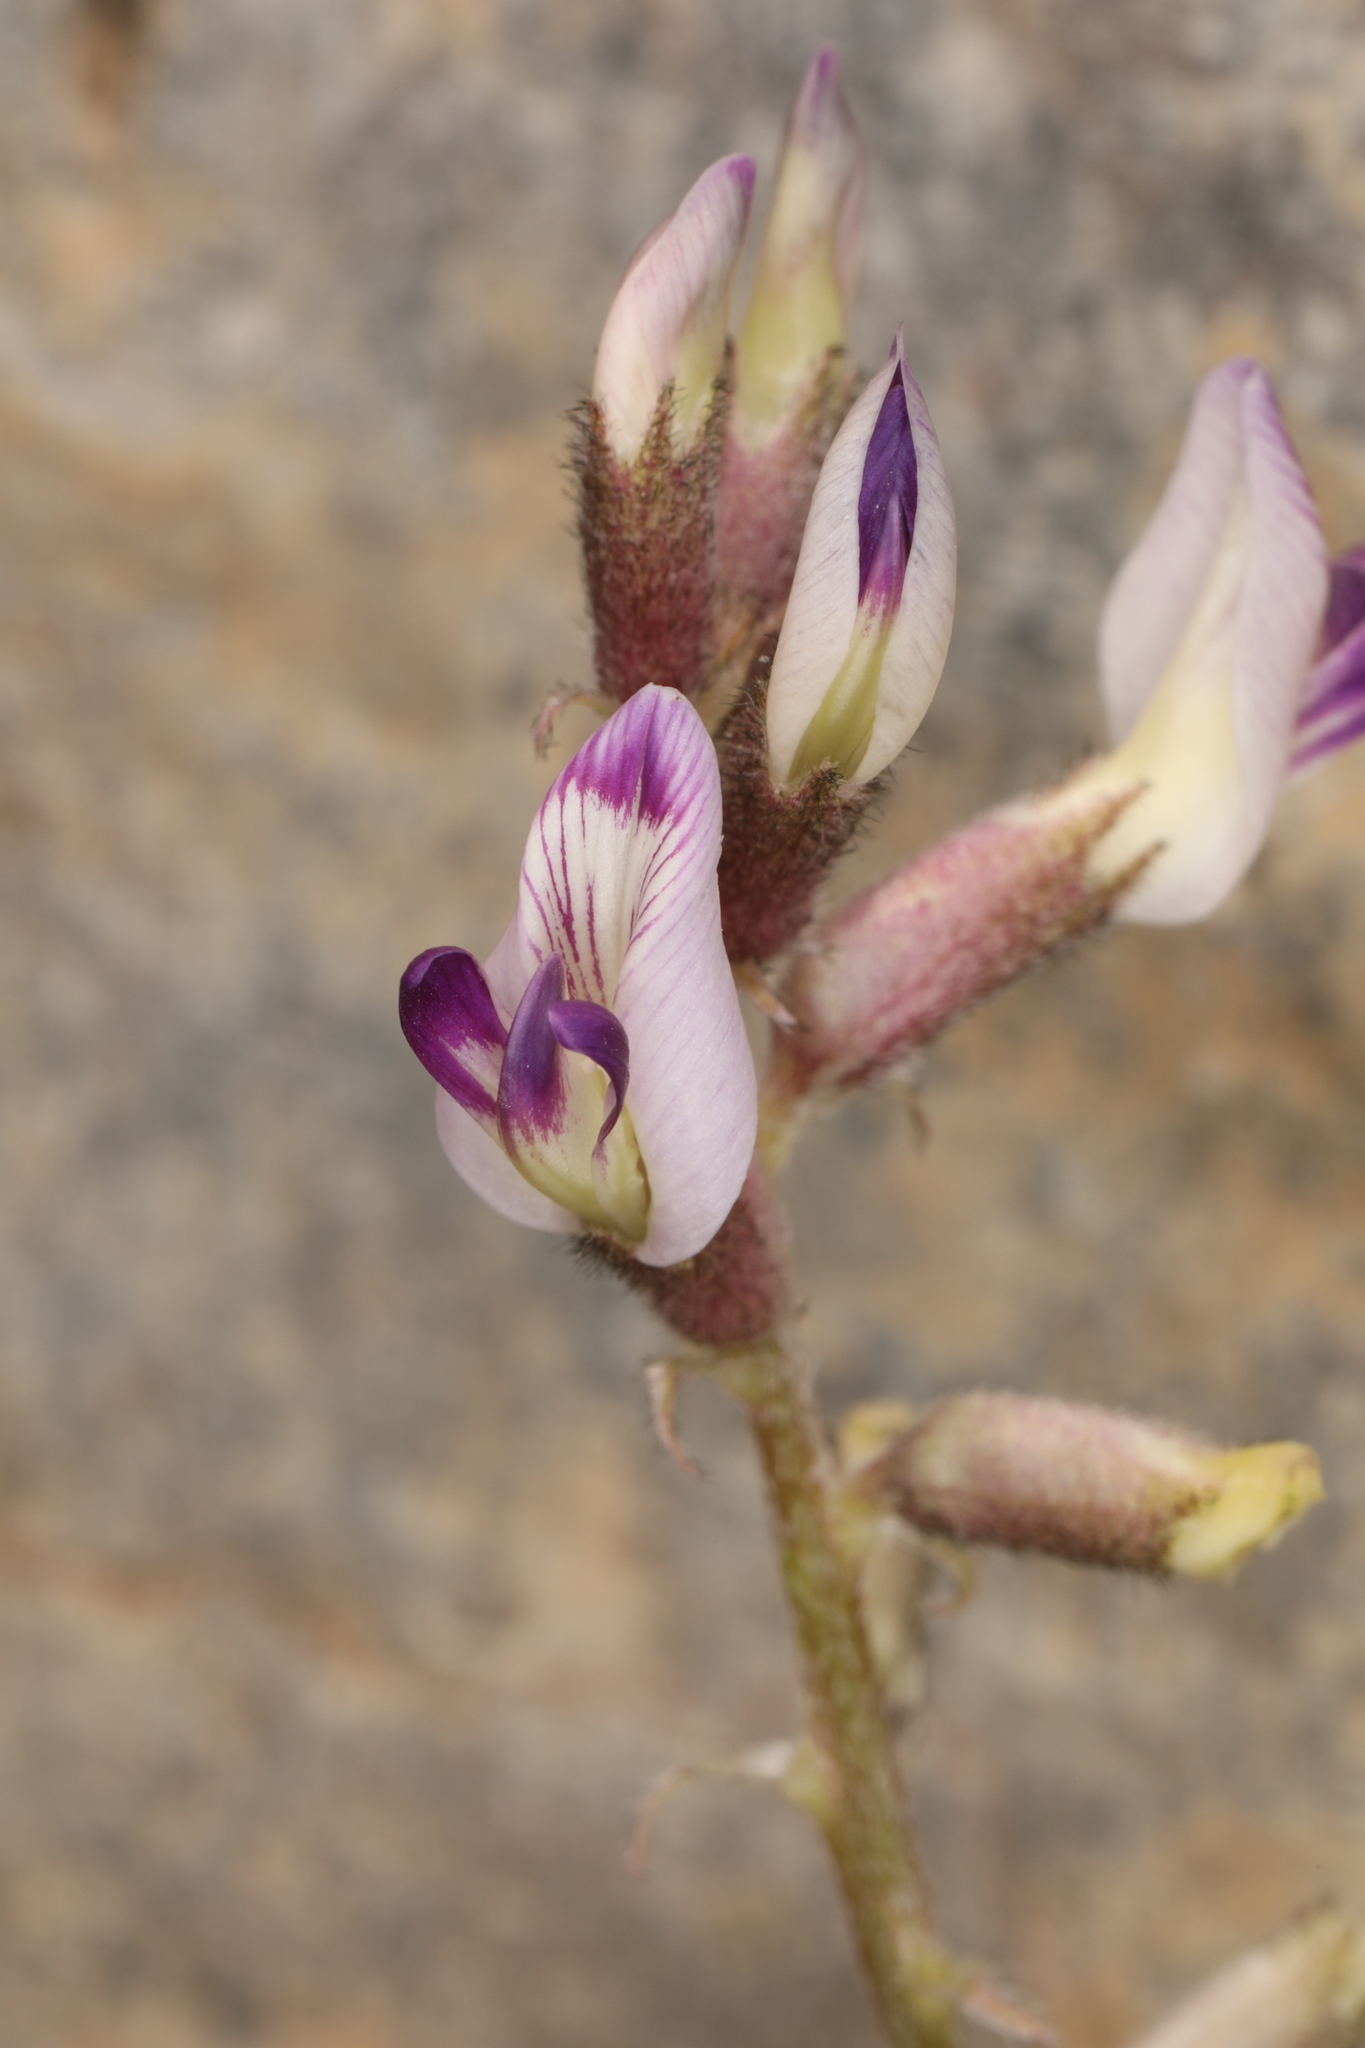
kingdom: Plantae
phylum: Tracheophyta
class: Magnoliopsida
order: Fabales
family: Fabaceae
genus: Astragalus
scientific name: Astragalus layneae
